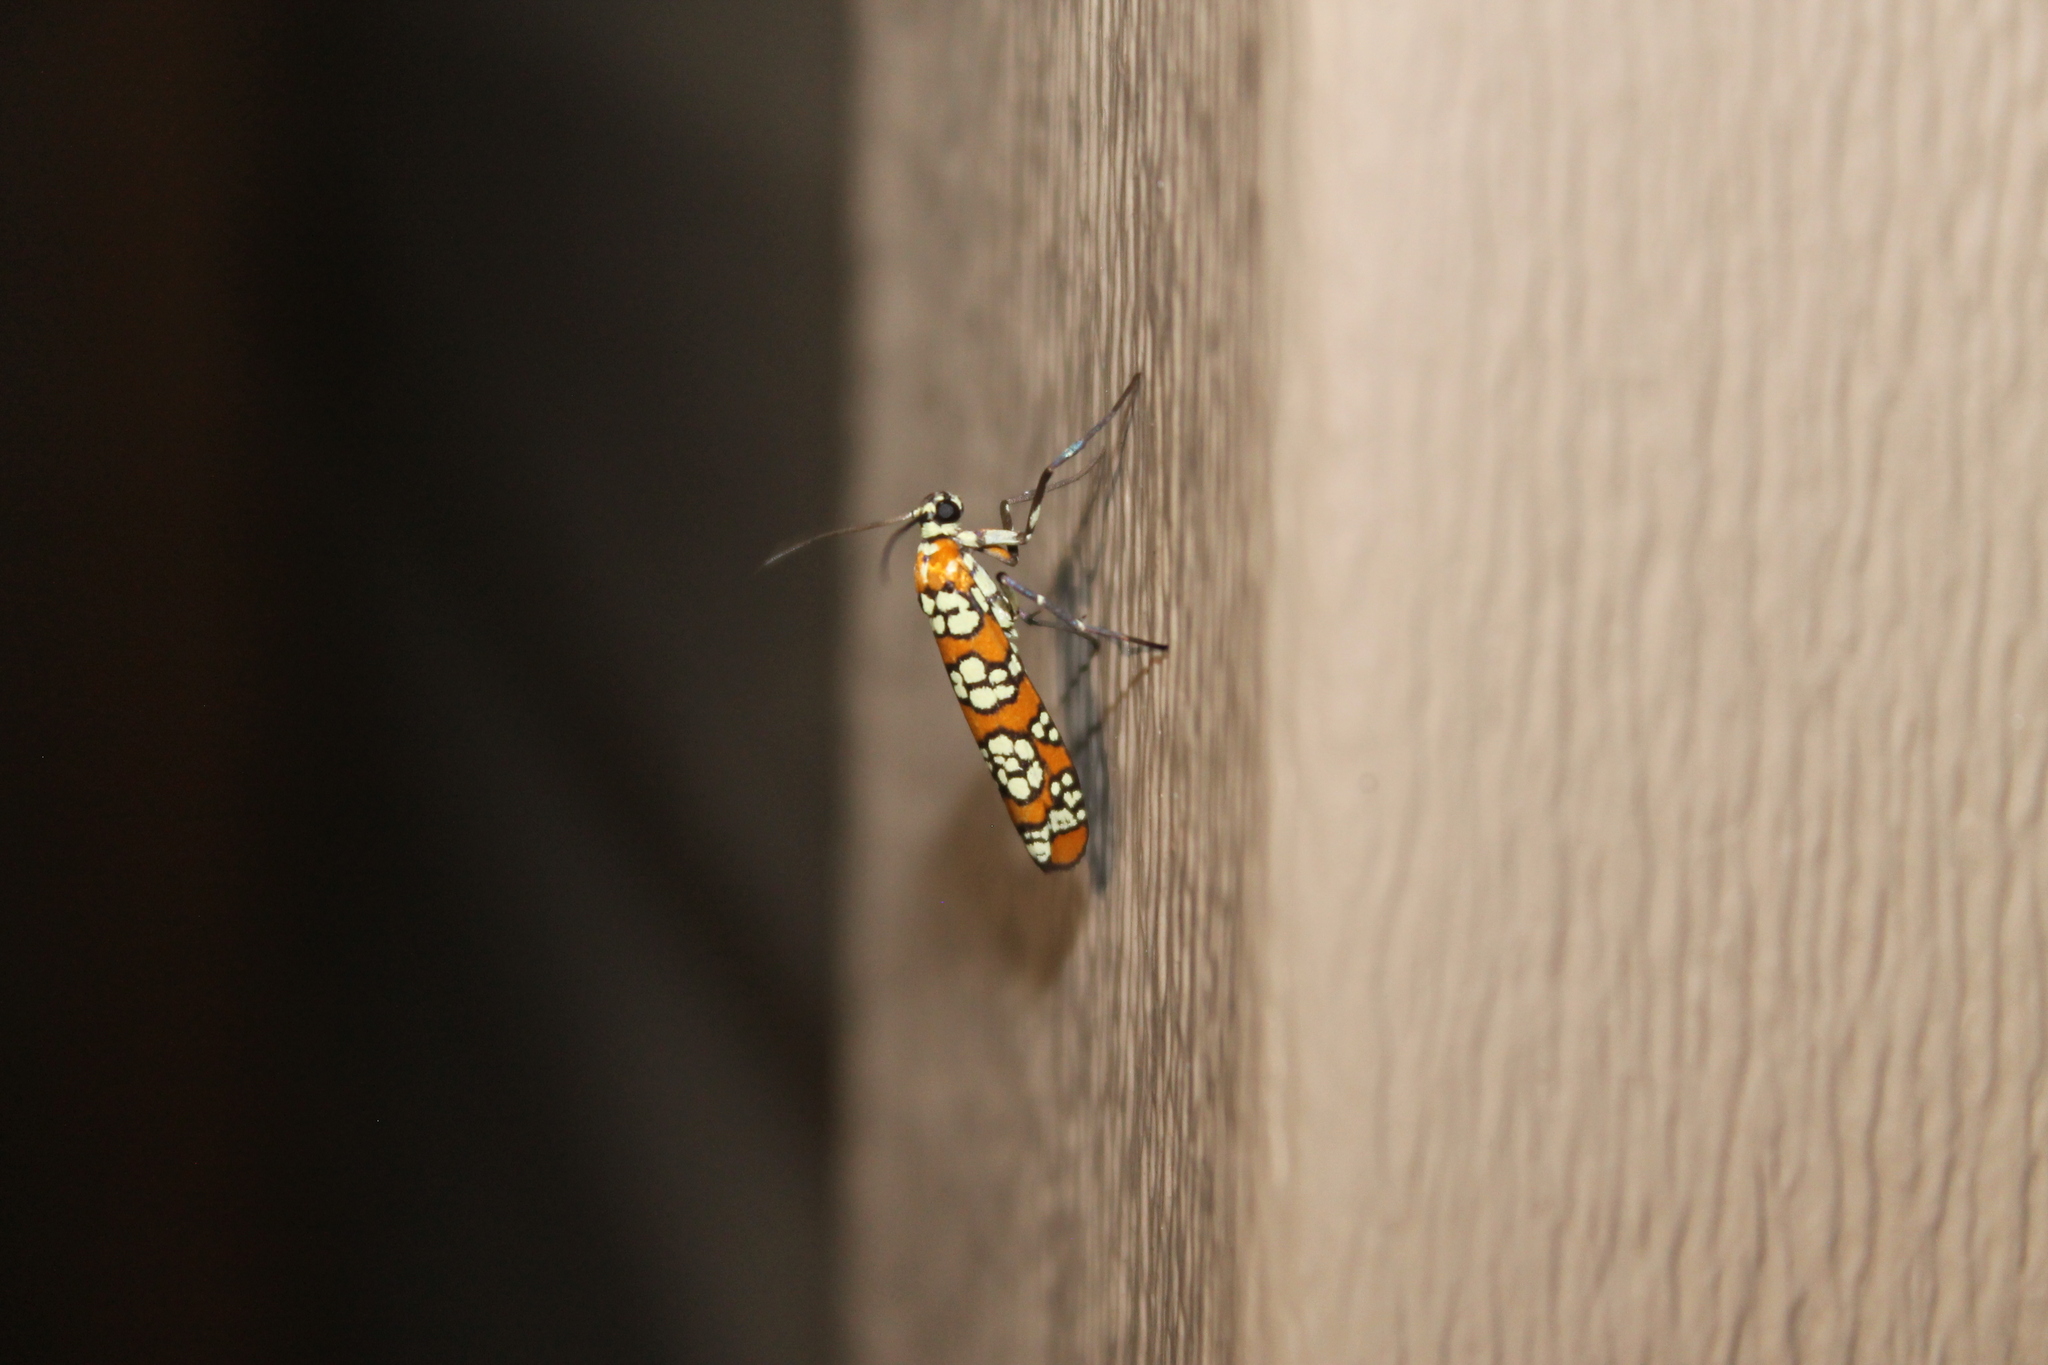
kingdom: Animalia
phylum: Arthropoda
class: Insecta
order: Lepidoptera
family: Attevidae
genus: Atteva
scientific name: Atteva punctella
